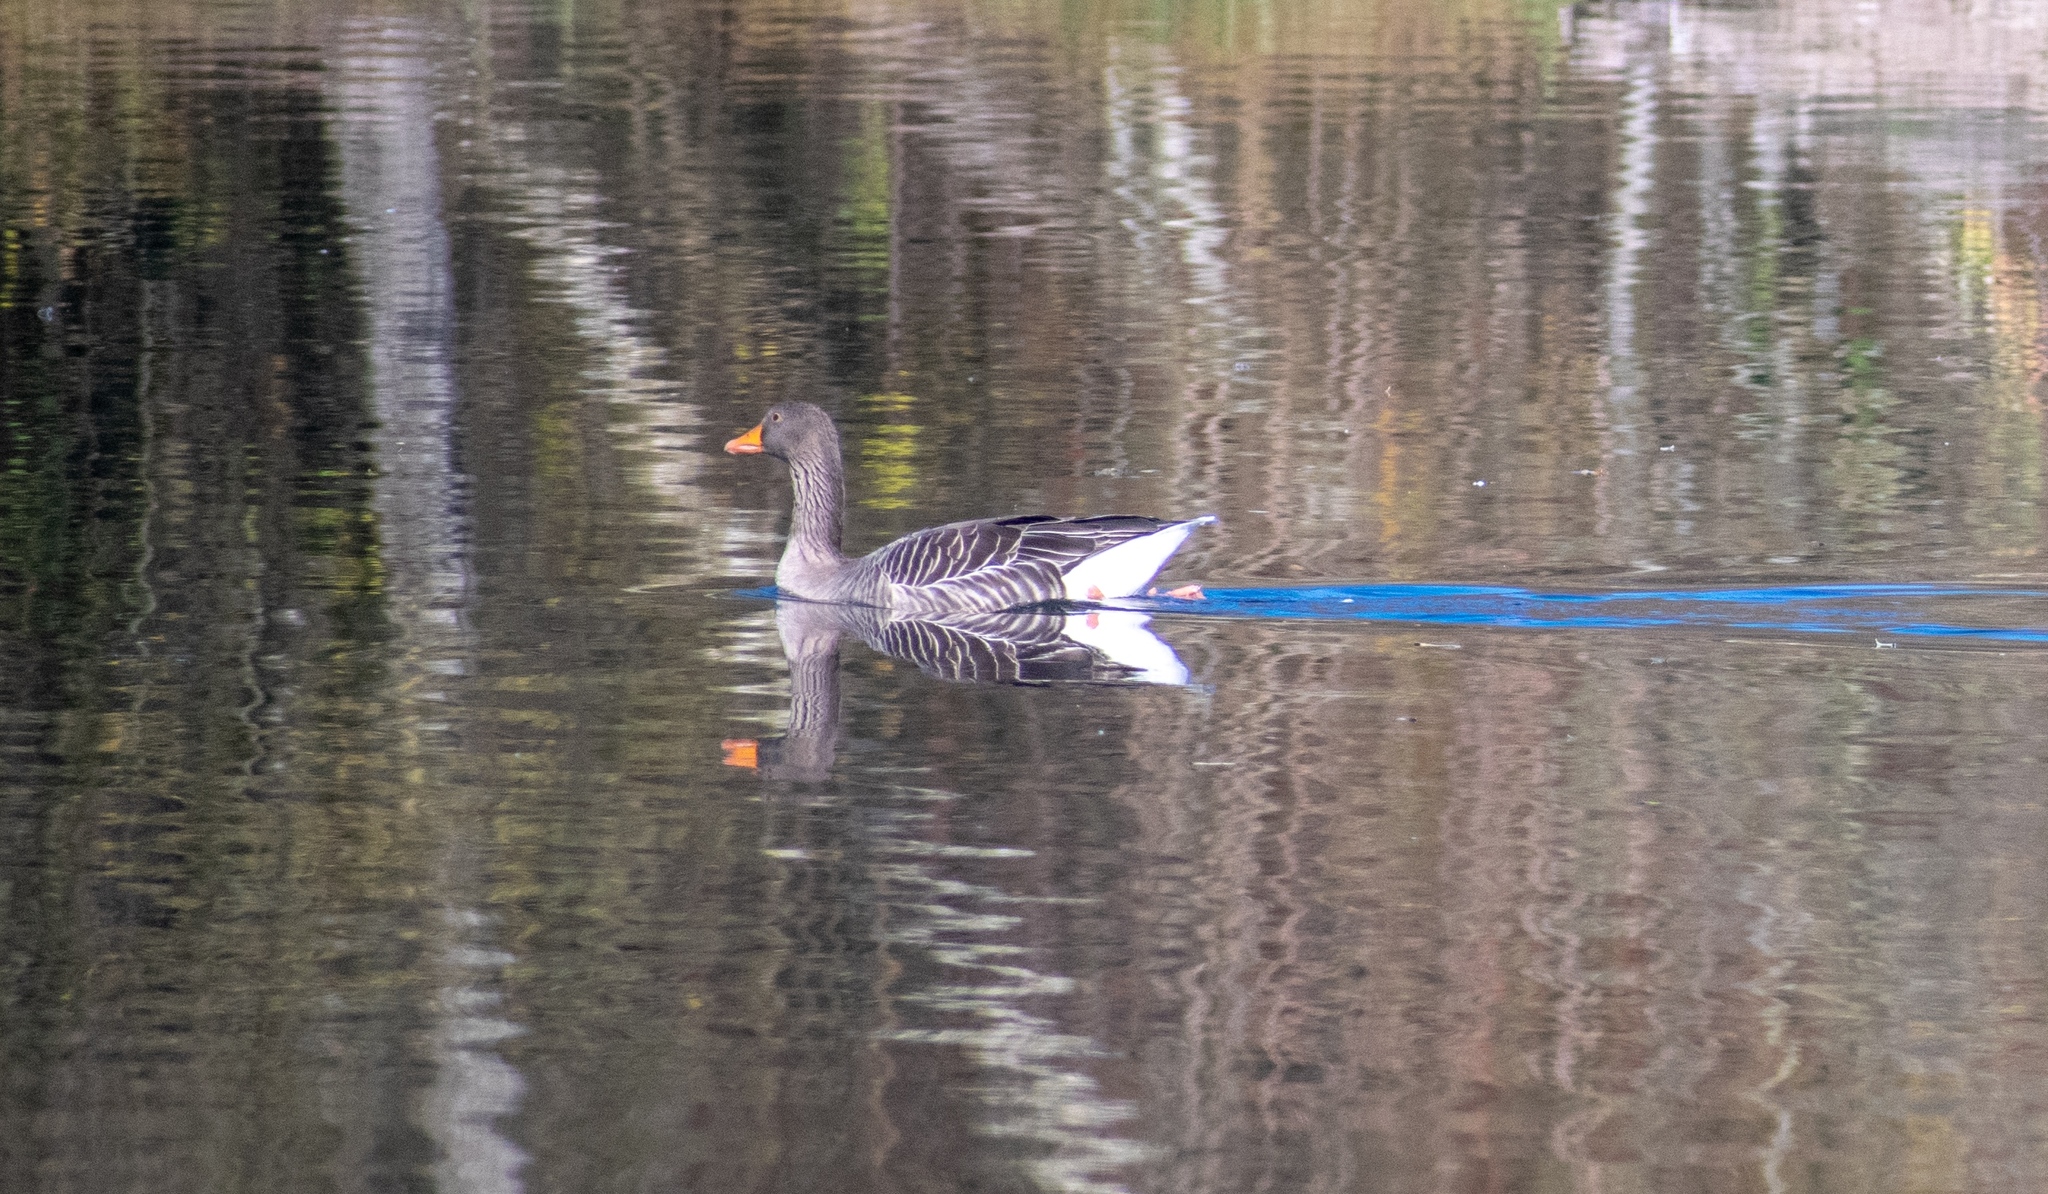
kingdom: Animalia
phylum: Chordata
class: Aves
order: Anseriformes
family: Anatidae
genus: Anser
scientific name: Anser anser
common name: Greylag goose
